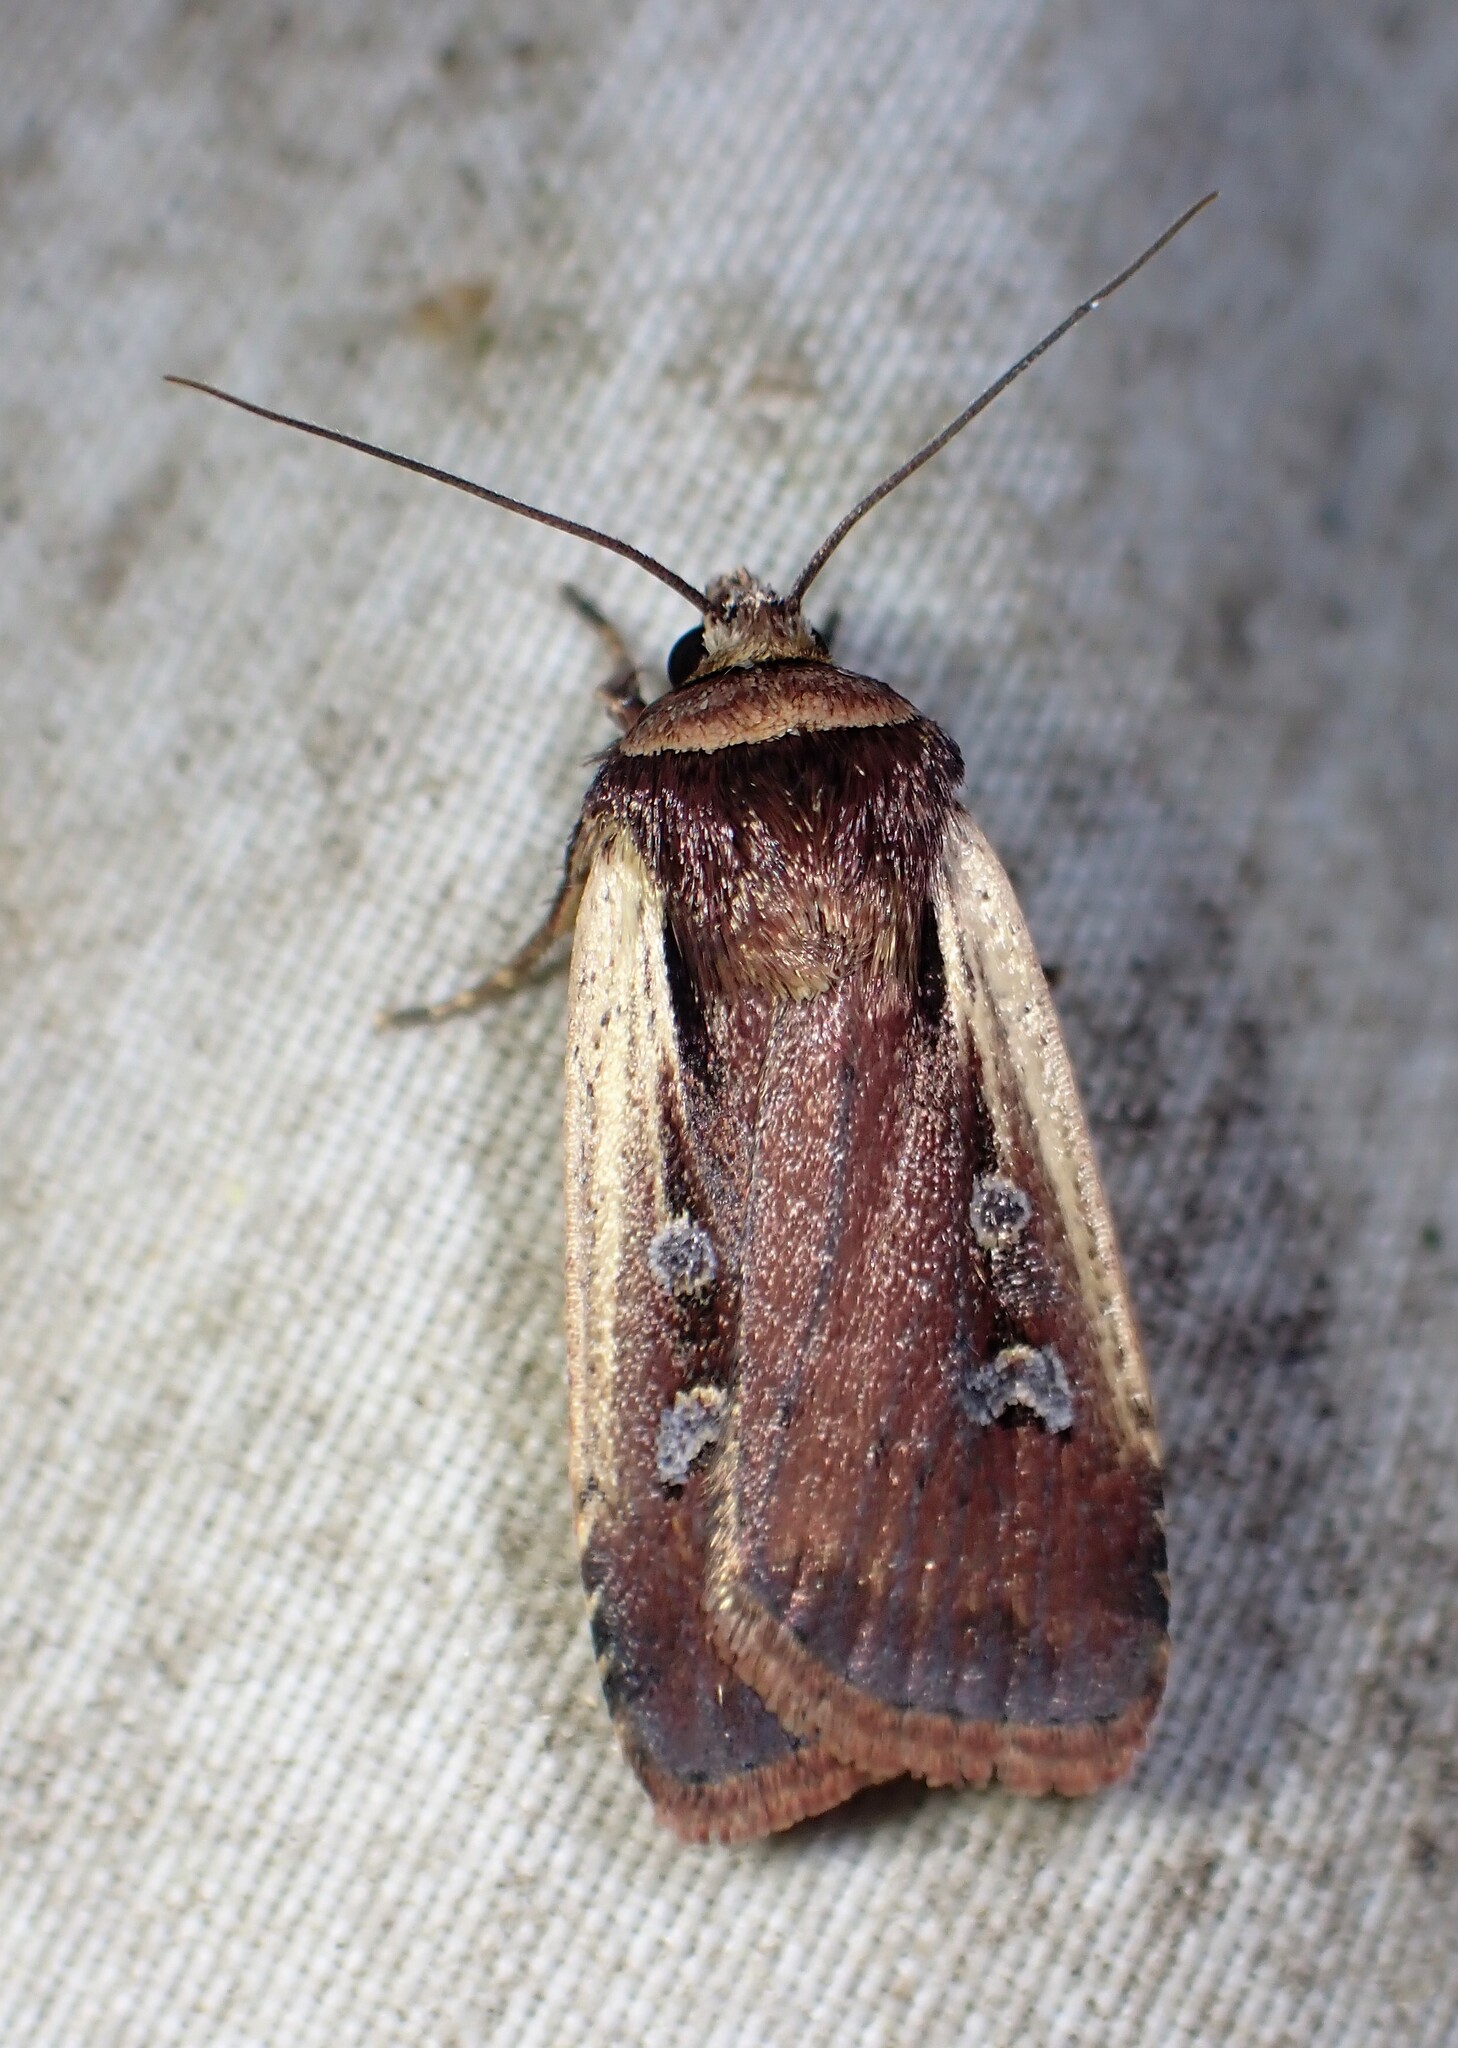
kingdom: Animalia
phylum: Arthropoda
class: Insecta
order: Lepidoptera
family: Noctuidae
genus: Ochropleura
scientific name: Ochropleura implecta
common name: Flame-shouldered dart
